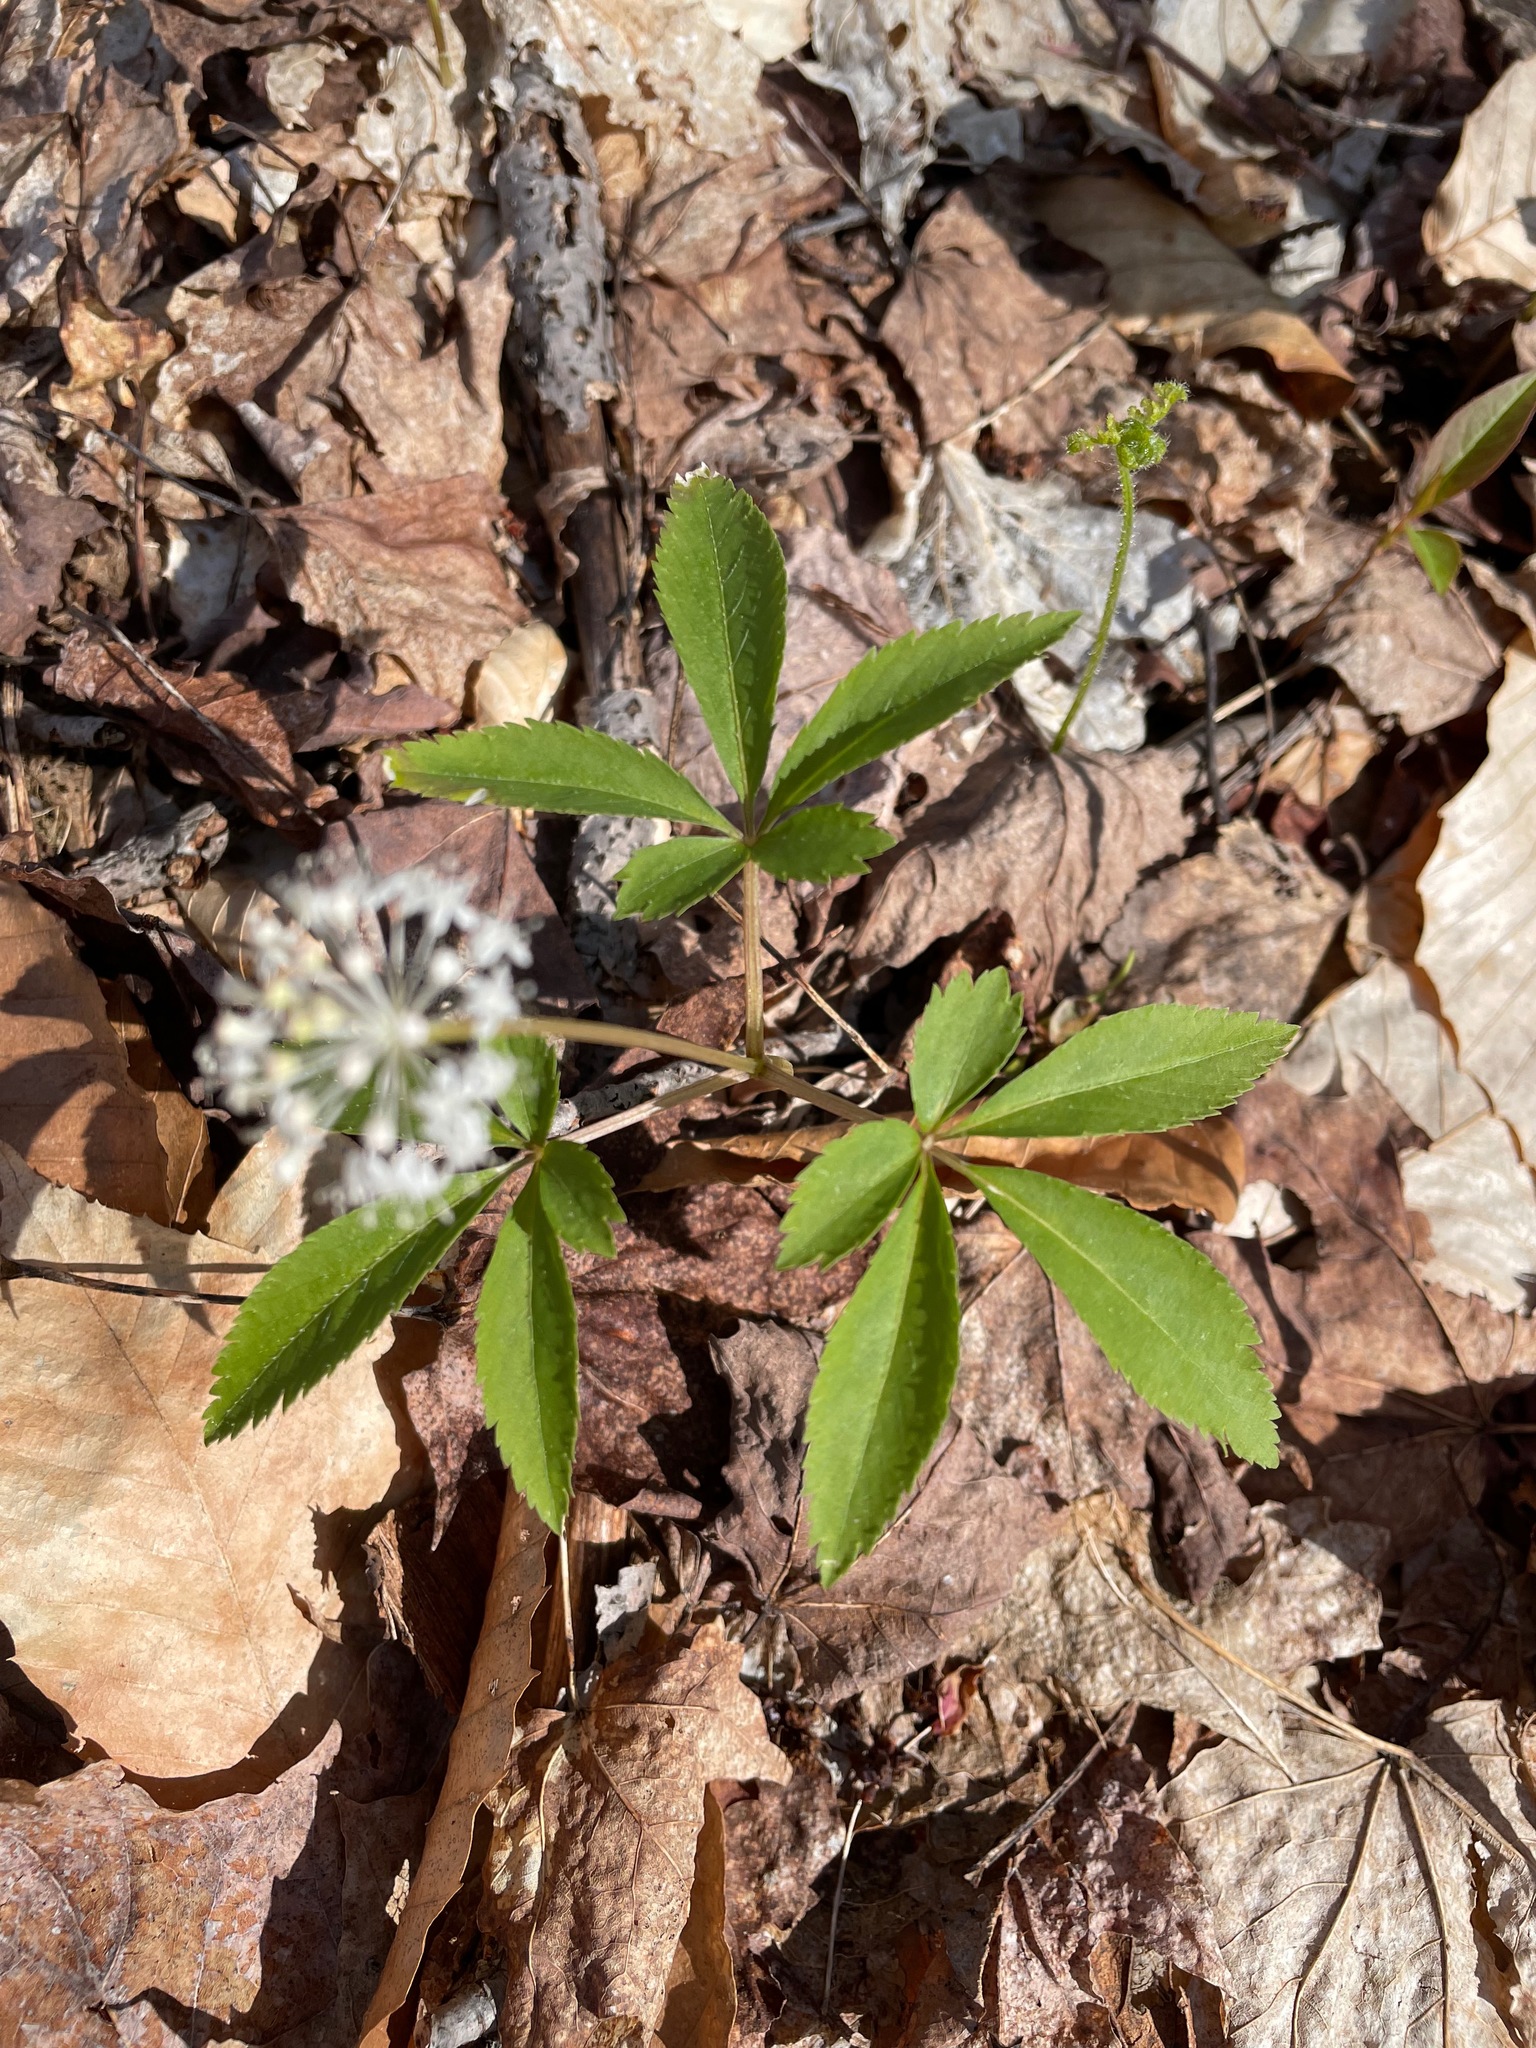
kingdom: Plantae
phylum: Tracheophyta
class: Magnoliopsida
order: Apiales
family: Araliaceae
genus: Panax
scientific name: Panax trifolius
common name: Dwarf ginseng
